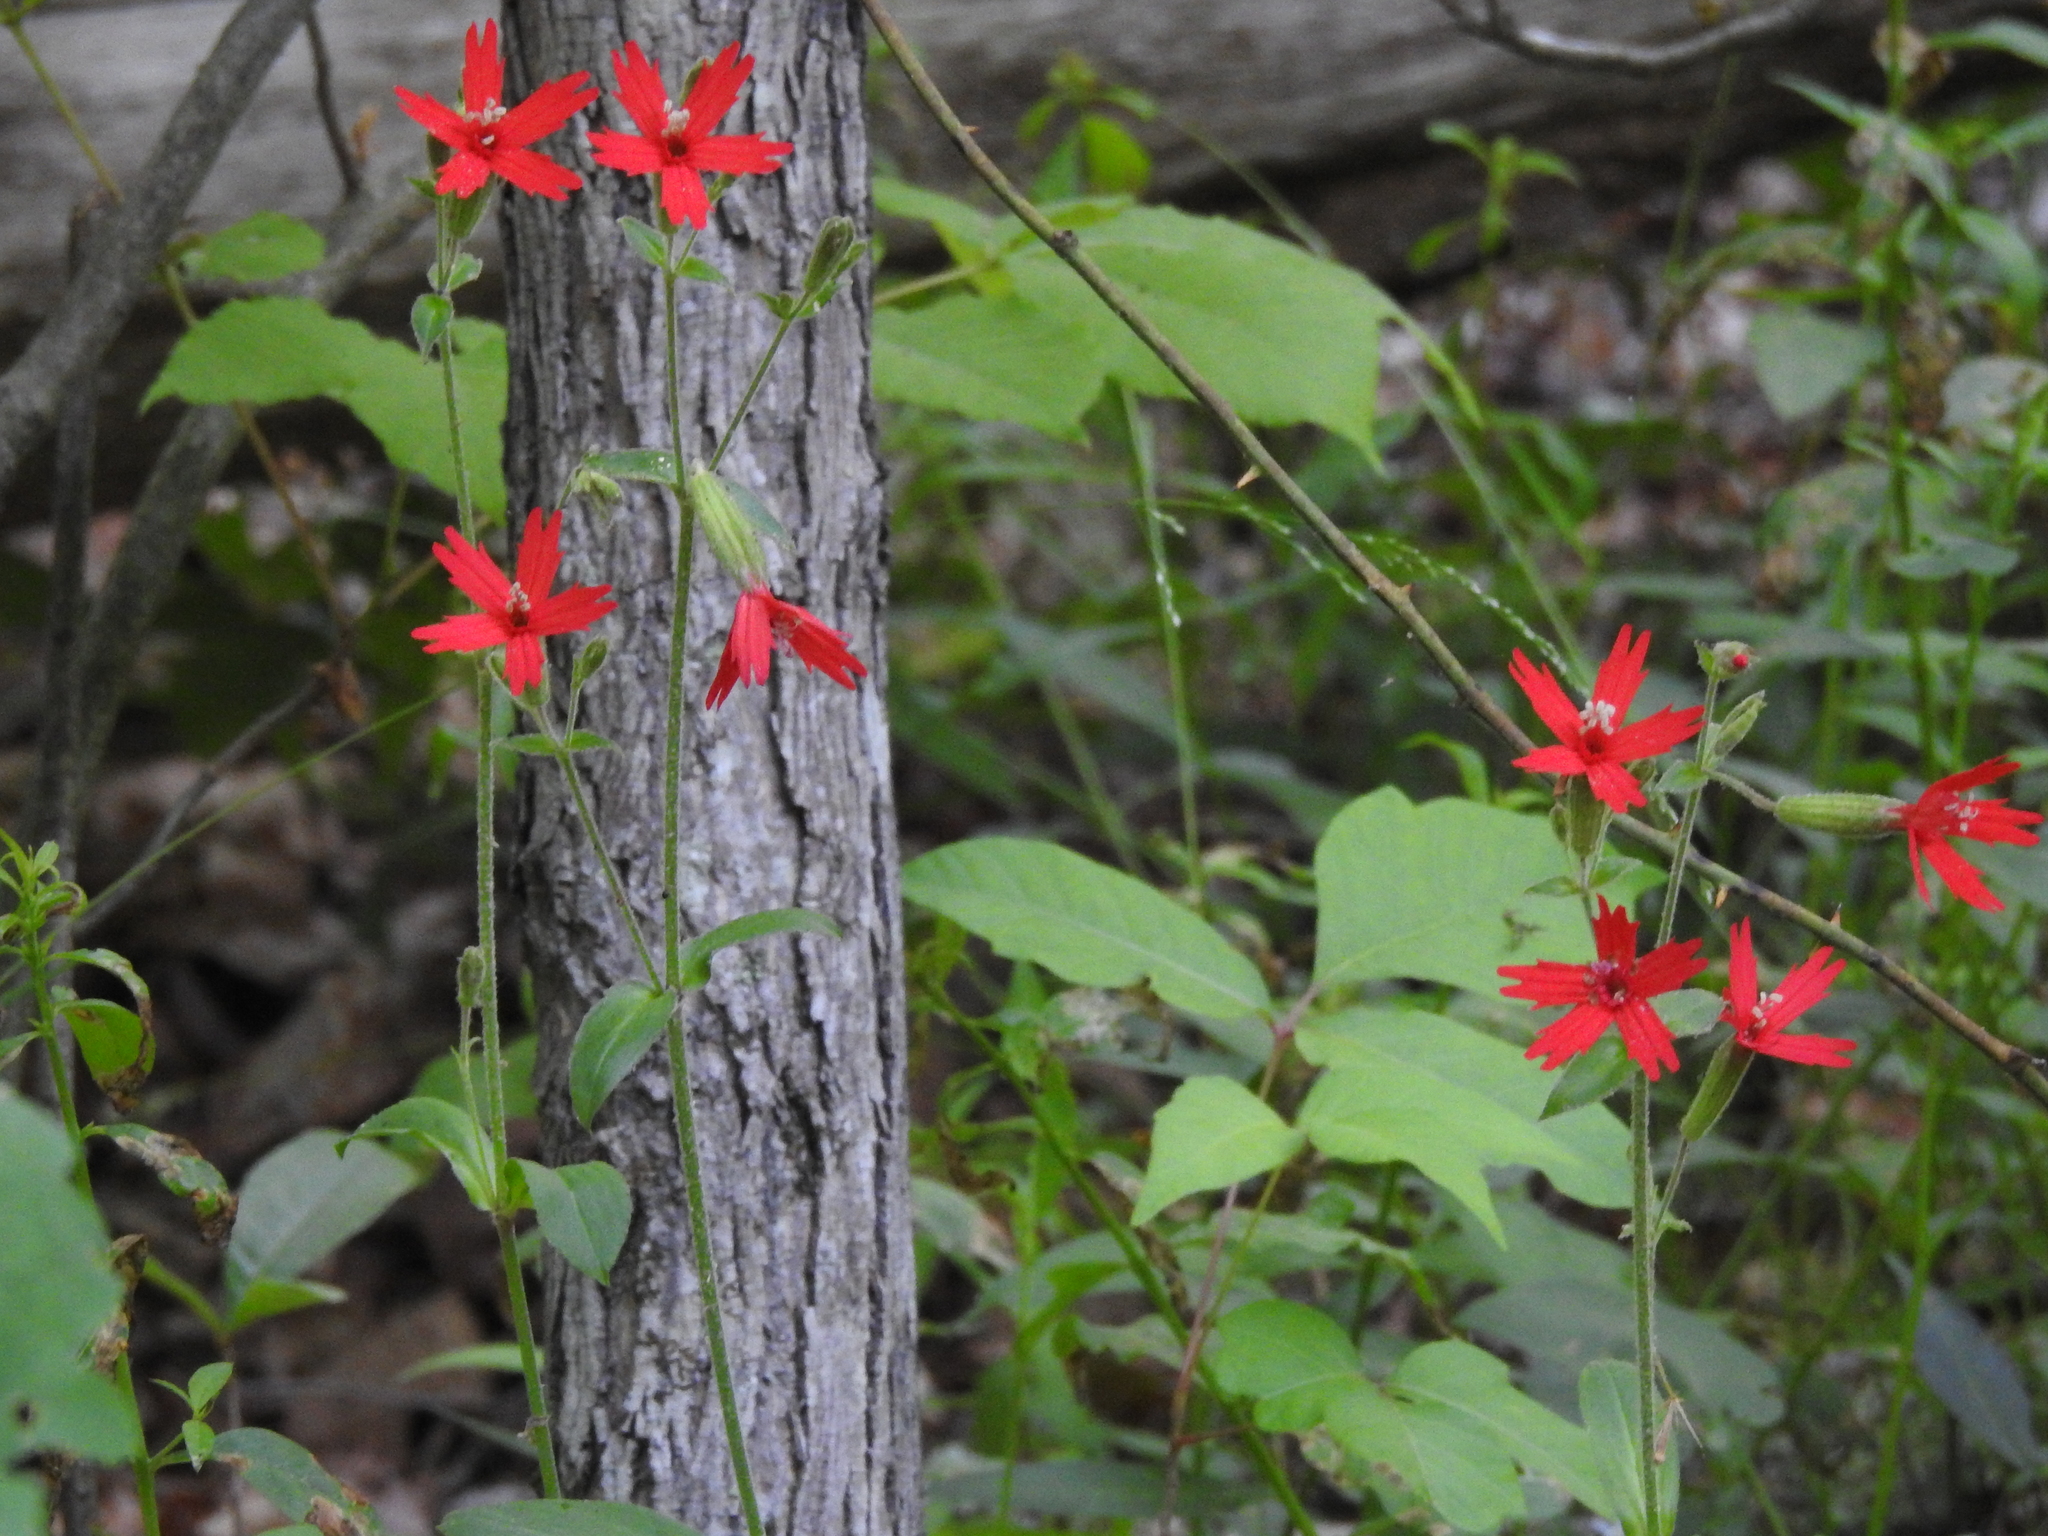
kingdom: Plantae
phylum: Tracheophyta
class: Magnoliopsida
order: Caryophyllales
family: Caryophyllaceae
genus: Silene
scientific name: Silene virginica
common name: Fire-pink
